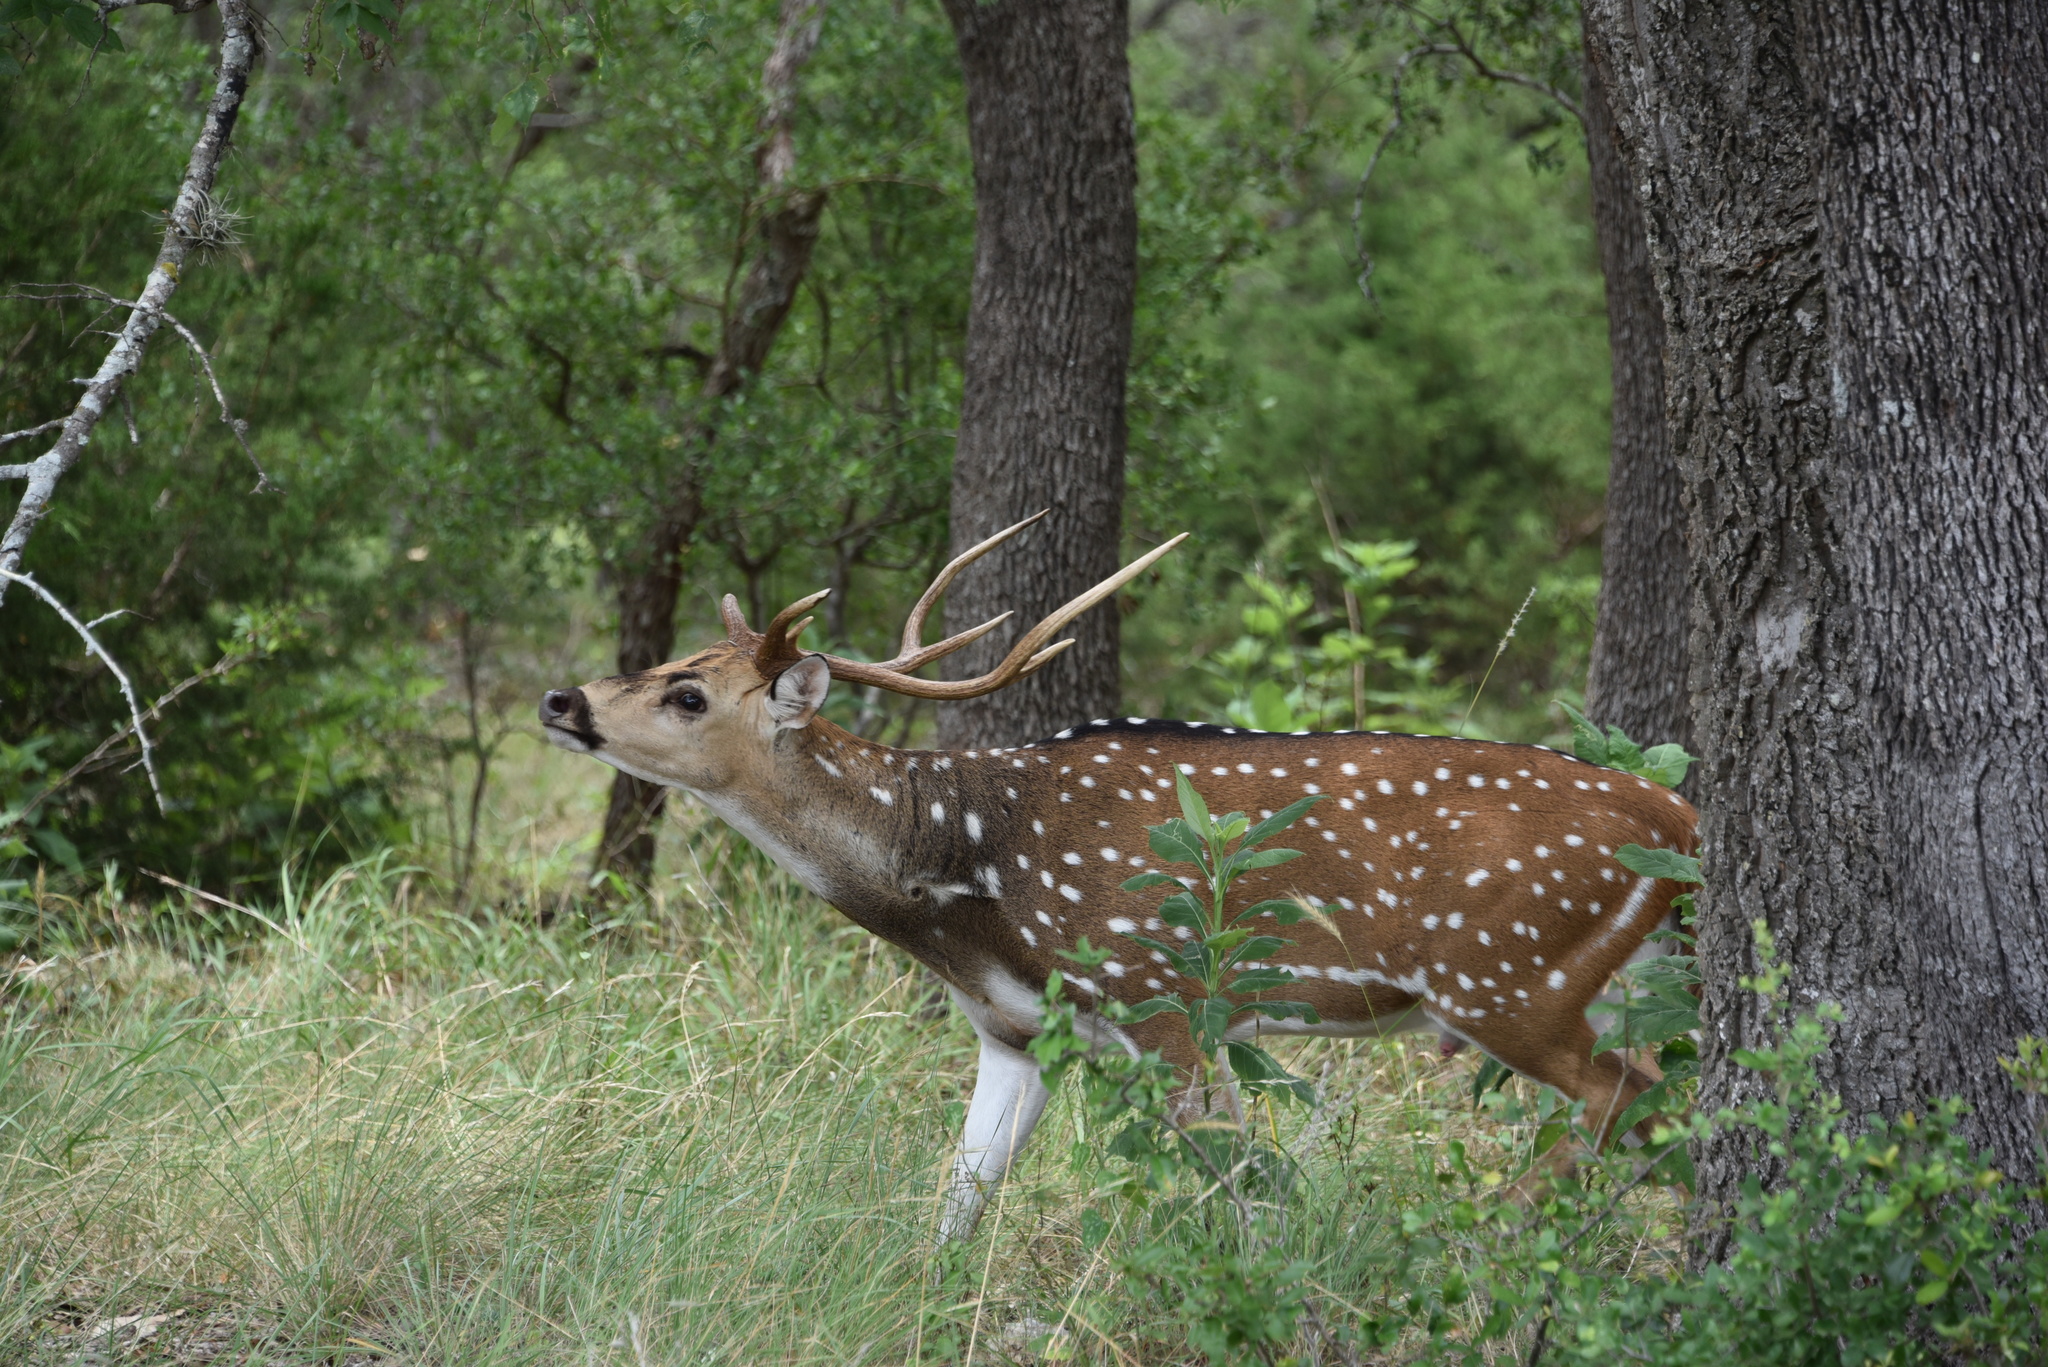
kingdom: Animalia
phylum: Chordata
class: Mammalia
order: Artiodactyla
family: Cervidae
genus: Axis
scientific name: Axis axis
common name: Chital
